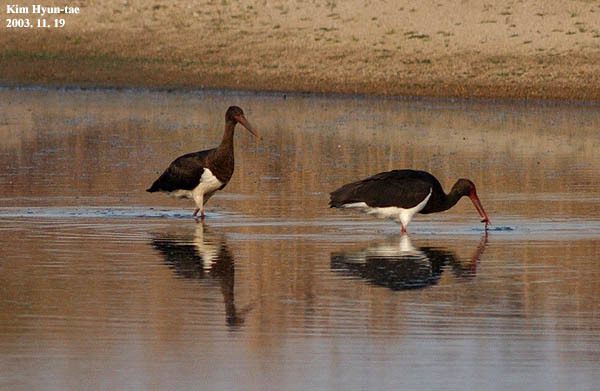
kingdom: Animalia
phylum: Chordata
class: Aves
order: Ciconiiformes
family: Ciconiidae
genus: Ciconia
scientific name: Ciconia nigra
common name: Black stork
